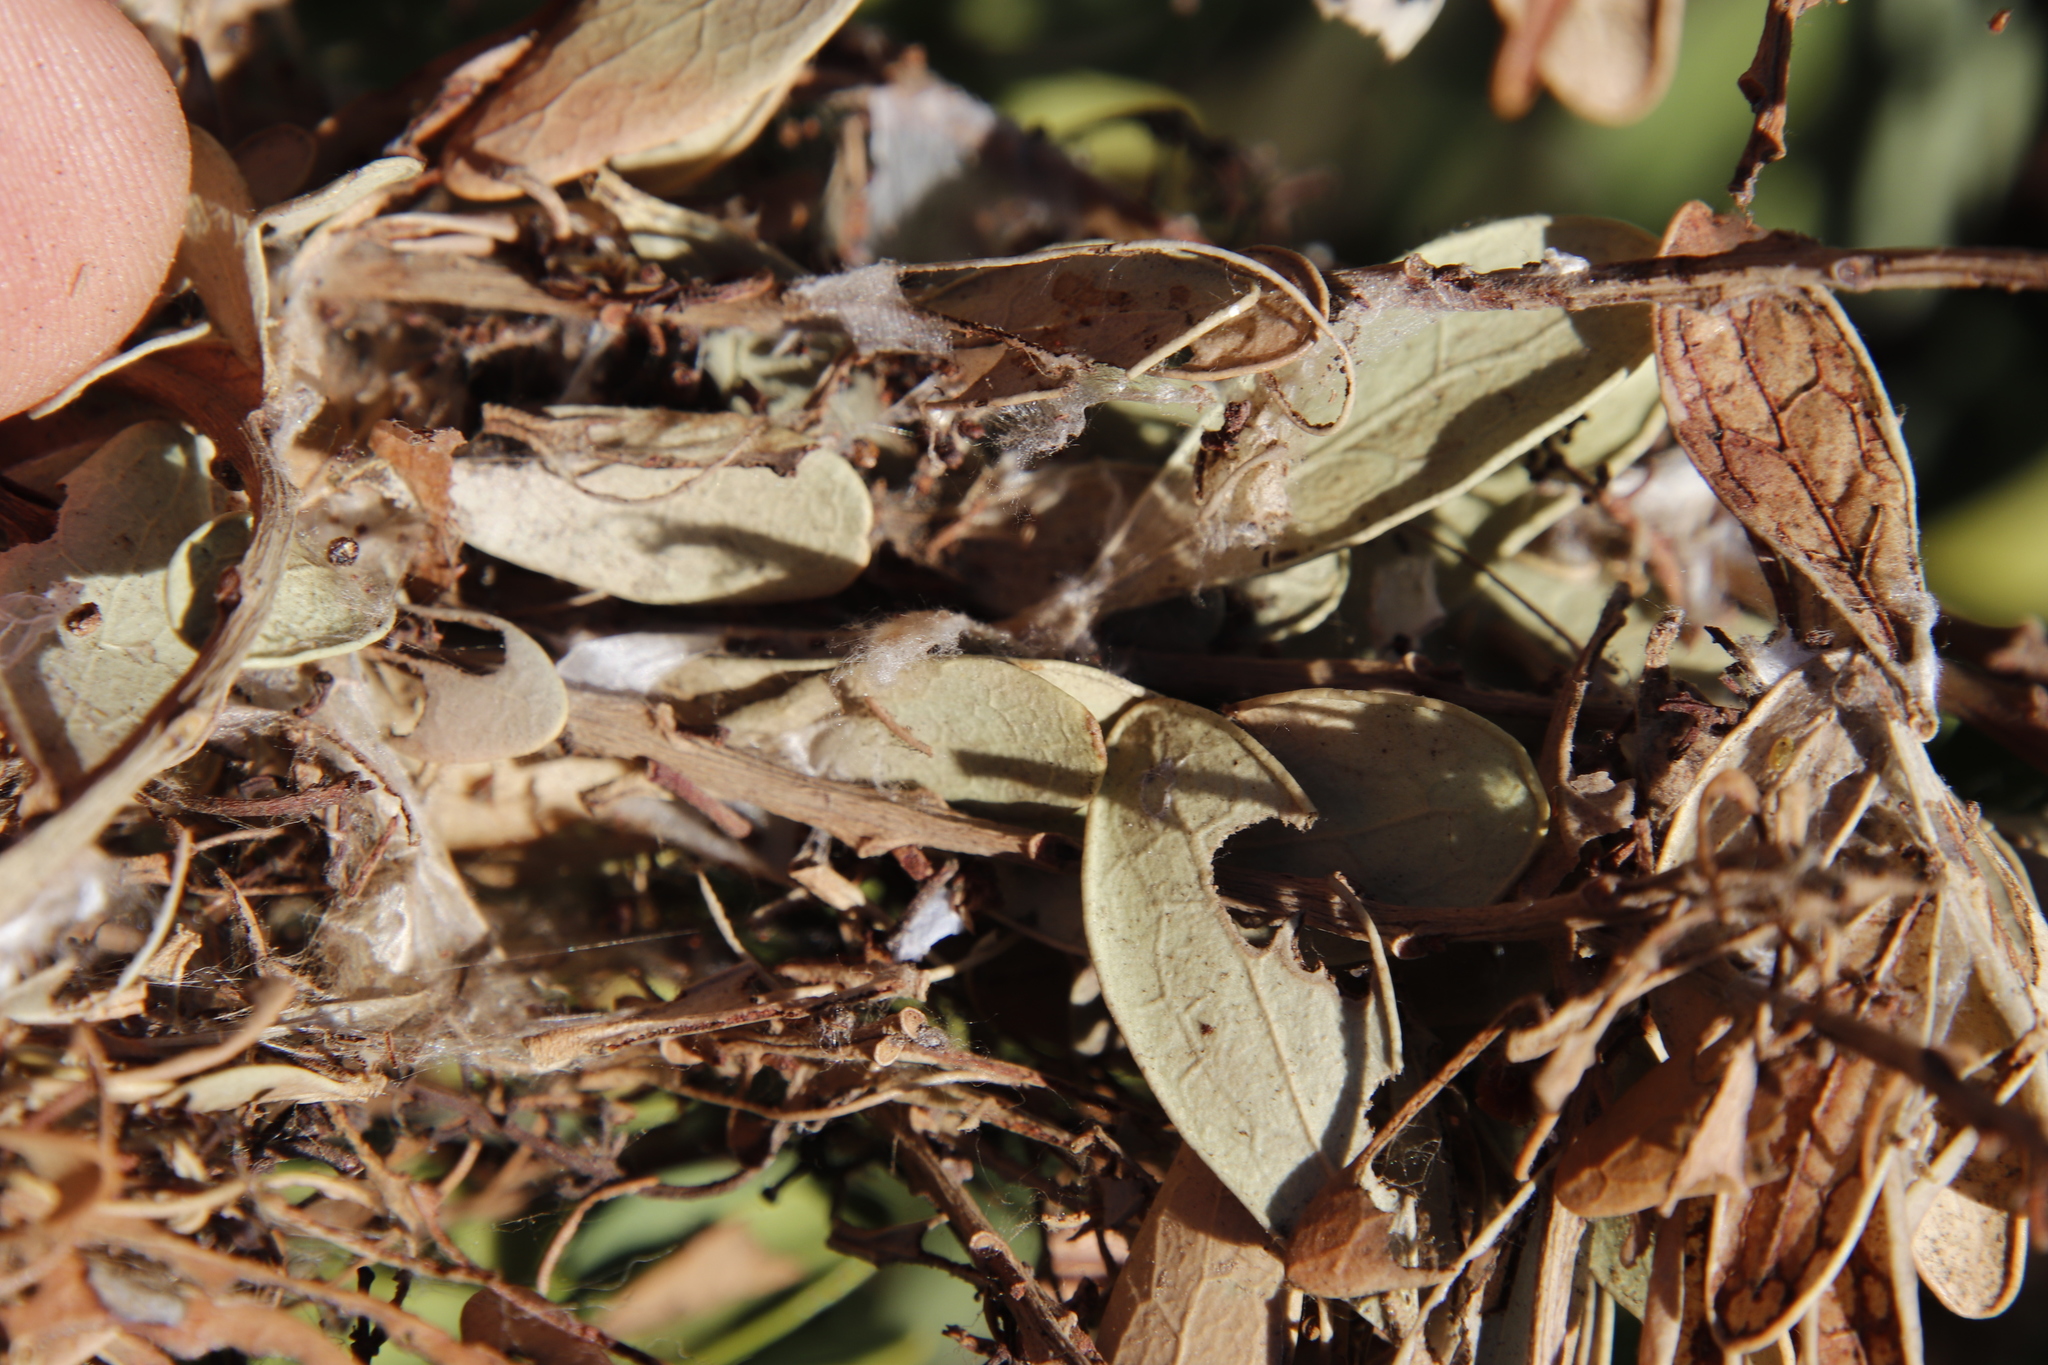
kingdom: Animalia
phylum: Arthropoda
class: Insecta
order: Hymenoptera
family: Formicidae
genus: Crematogaster
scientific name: Crematogaster peringueyi
